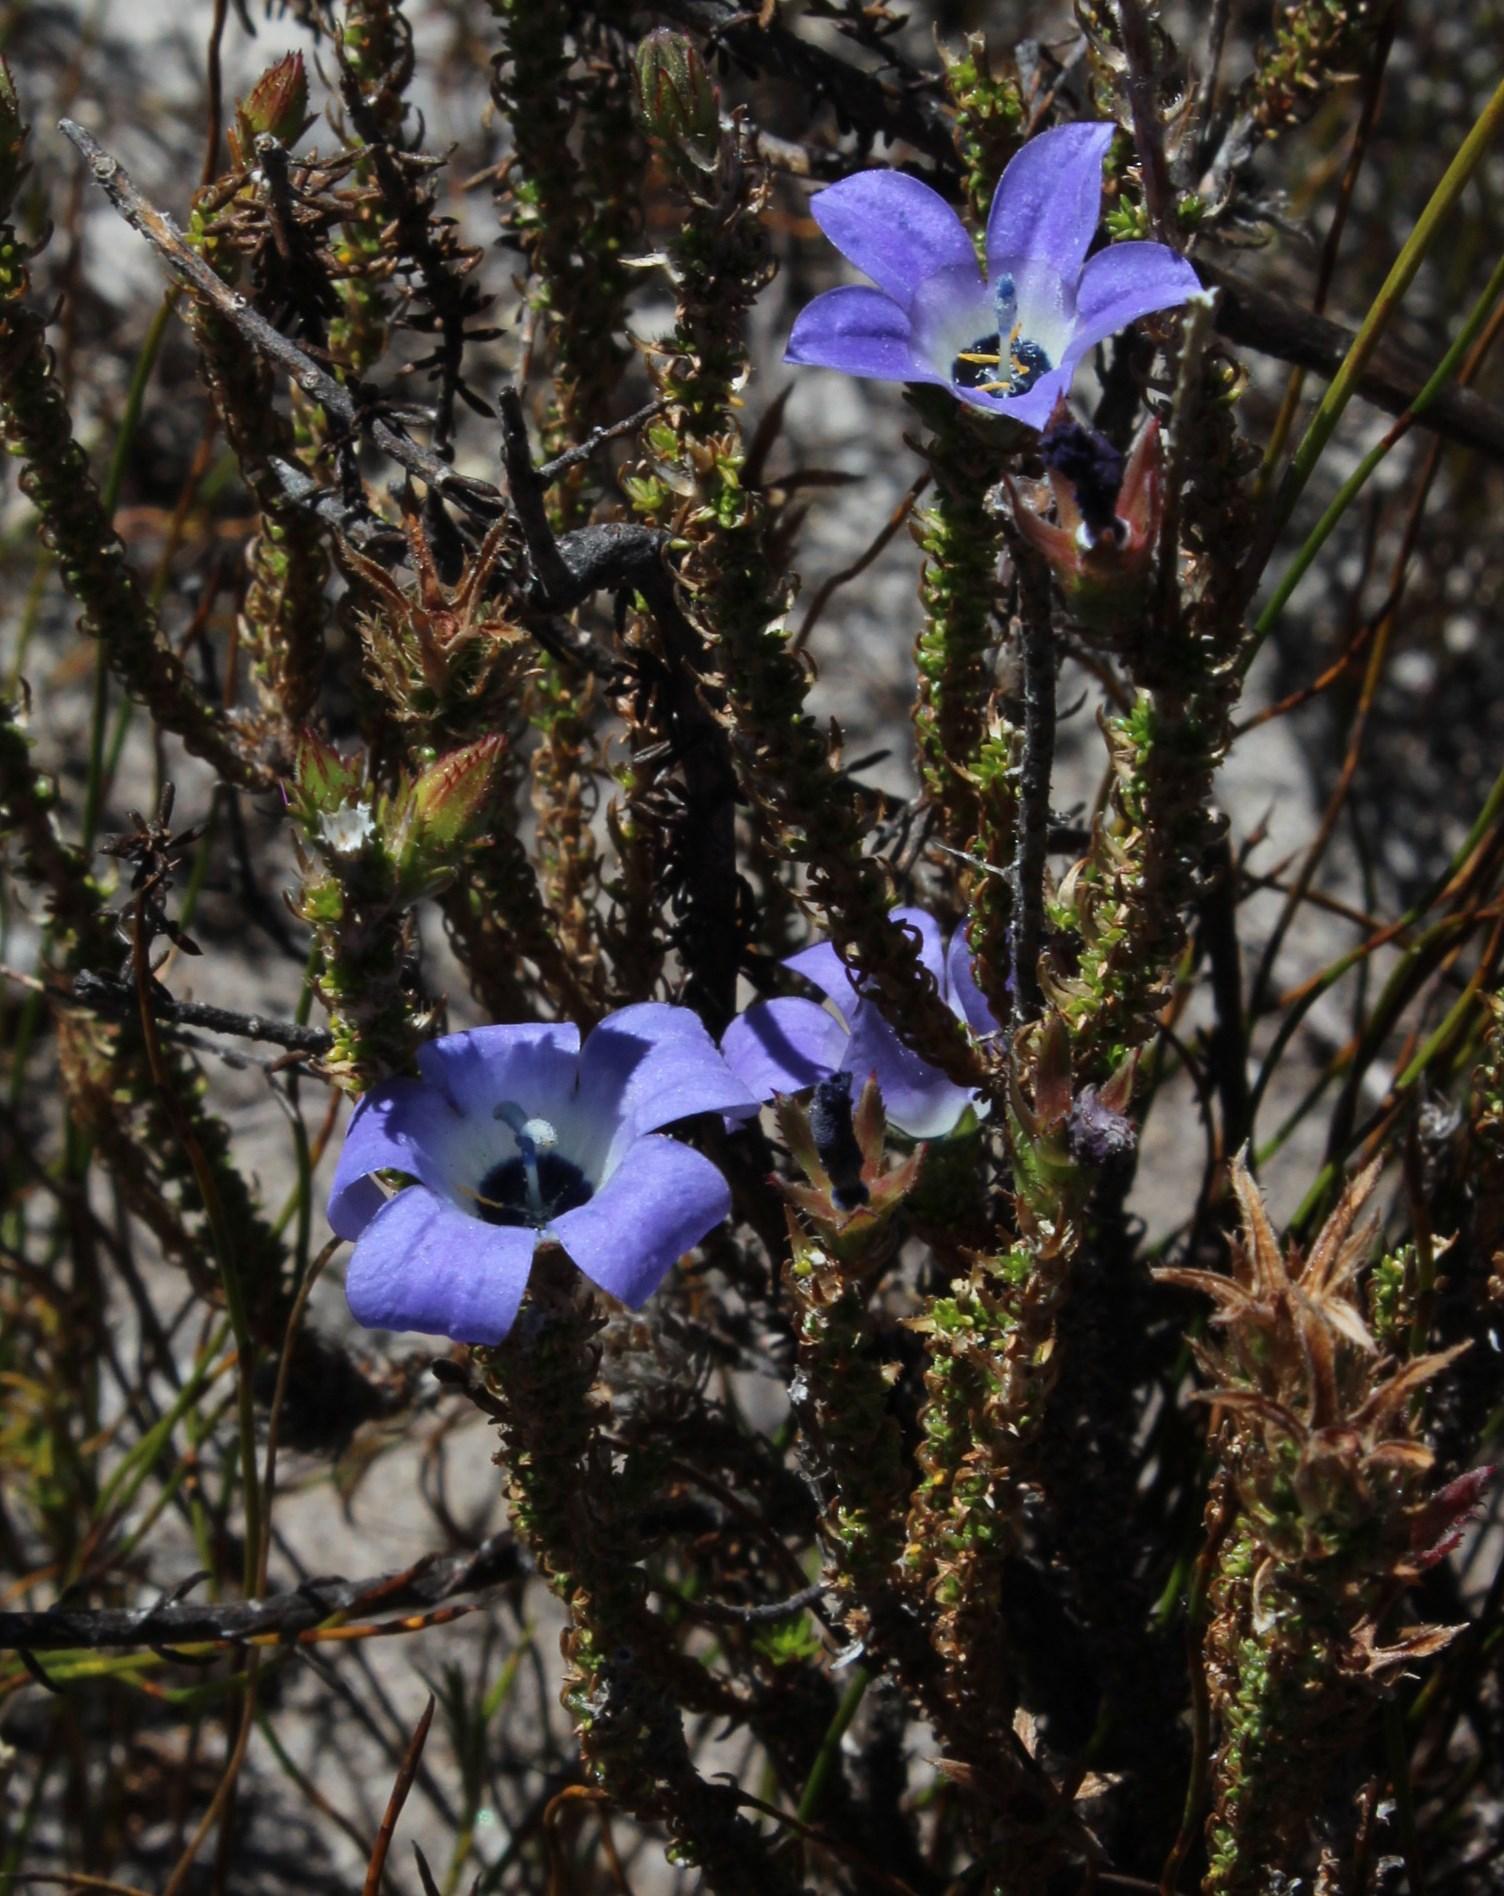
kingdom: Plantae
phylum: Tracheophyta
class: Magnoliopsida
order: Asterales
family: Campanulaceae
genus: Roella
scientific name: Roella triflora
